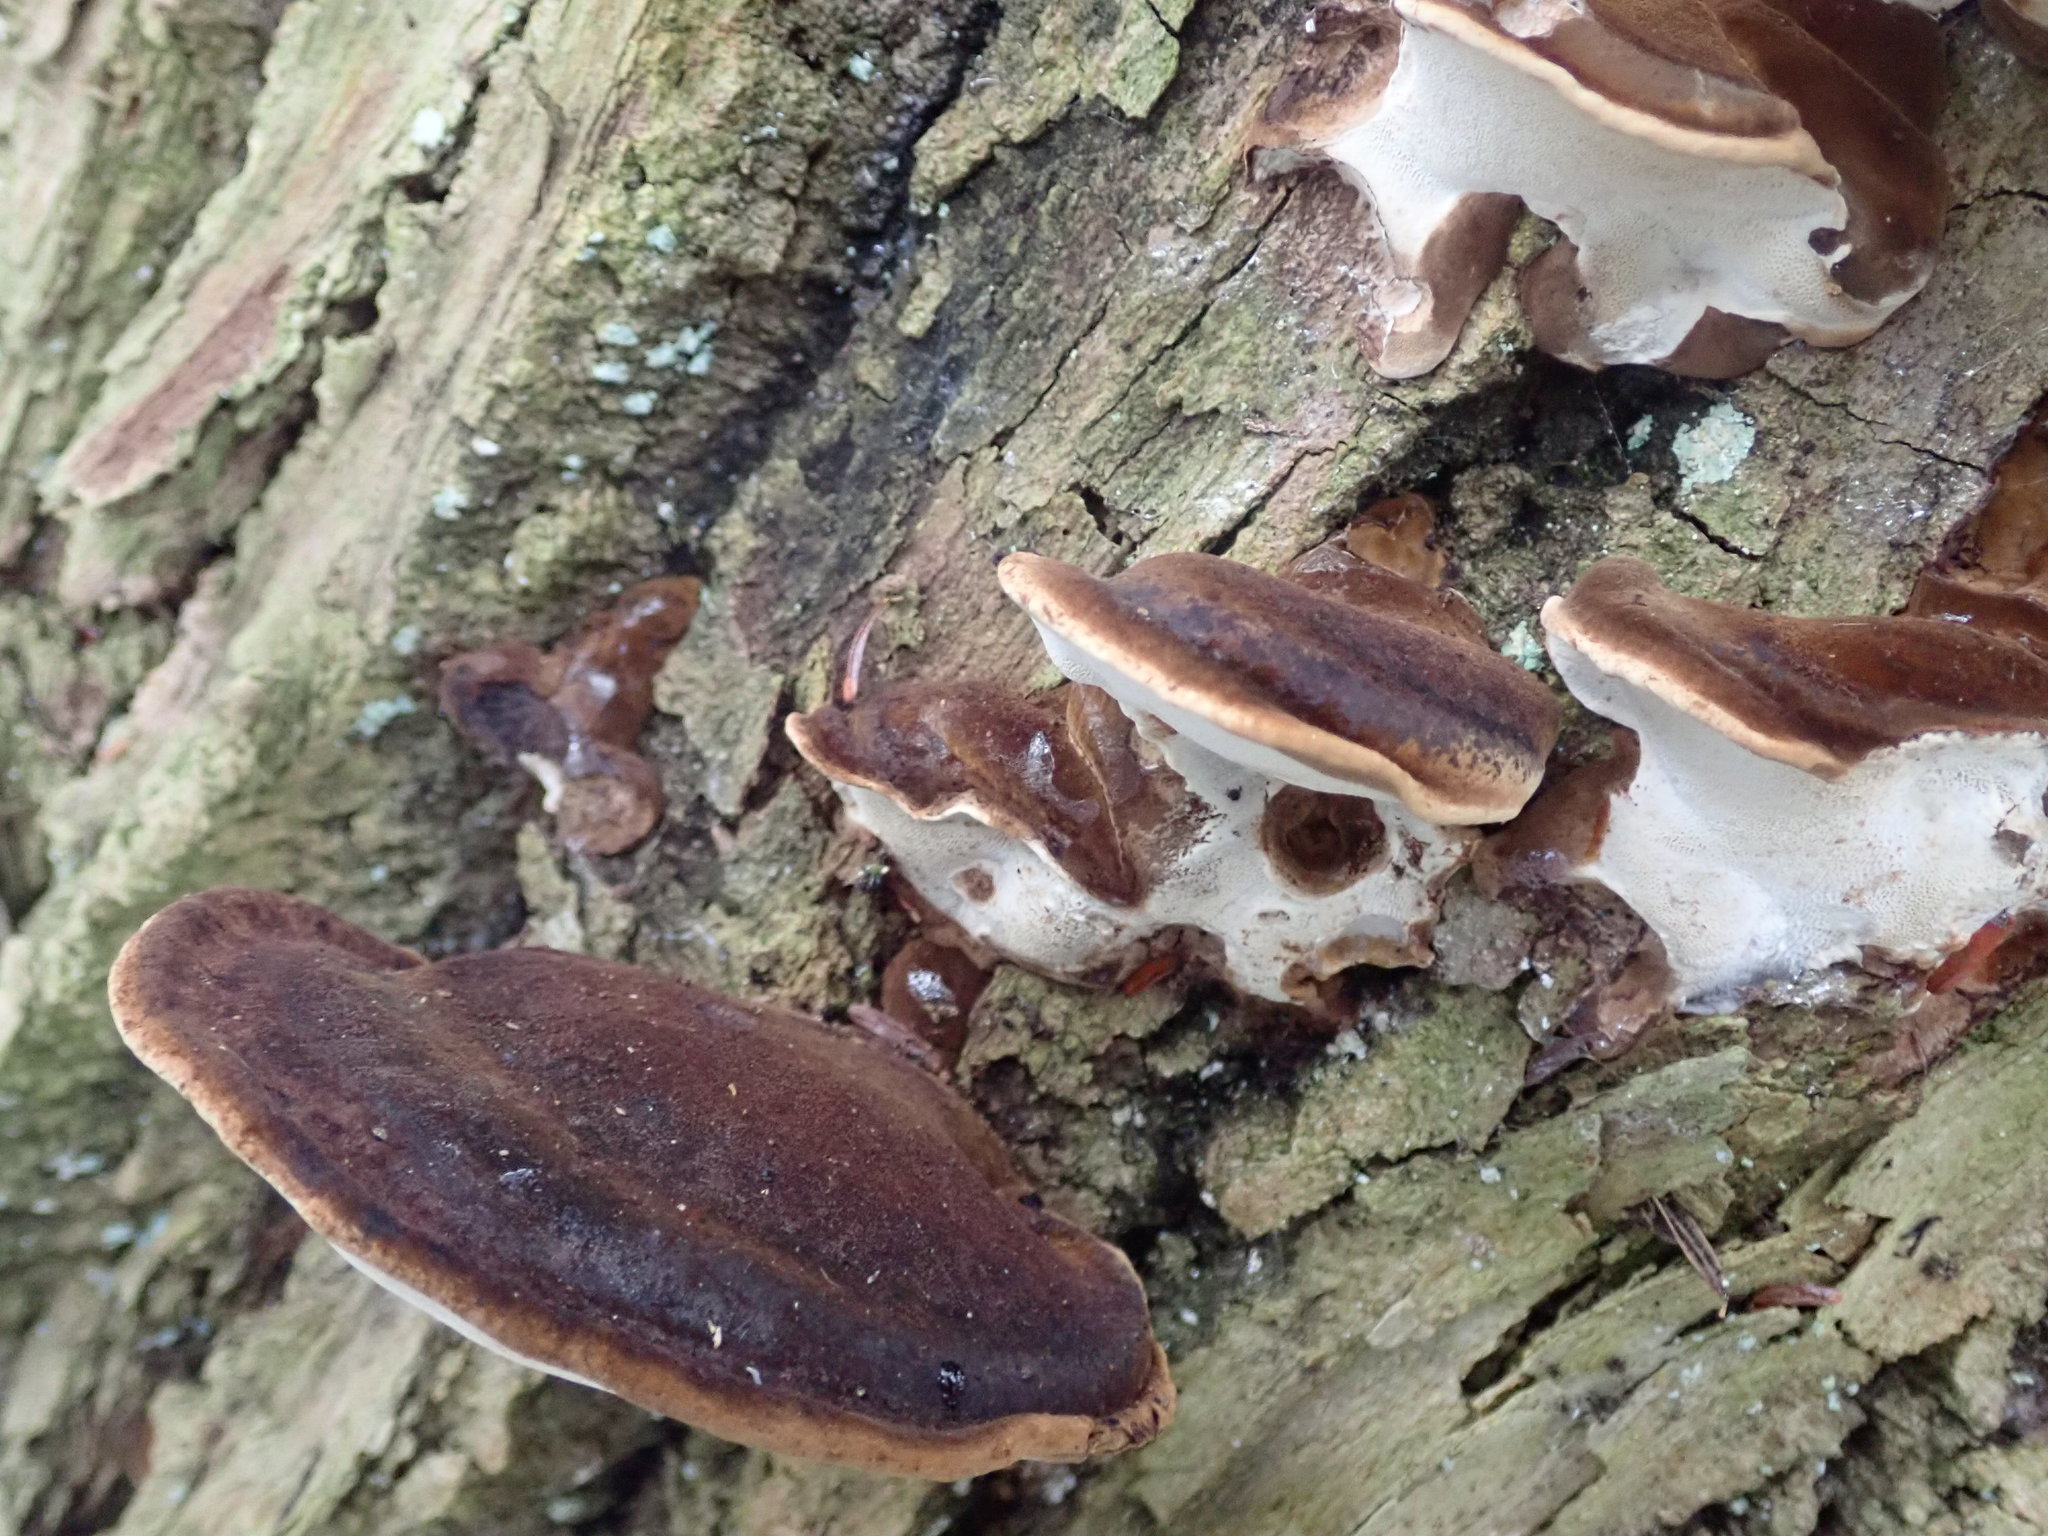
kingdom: Fungi
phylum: Basidiomycota
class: Agaricomycetes
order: Polyporales
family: Ischnodermataceae
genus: Ischnoderma
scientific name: Ischnoderma resinosum
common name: Resinous polypore
